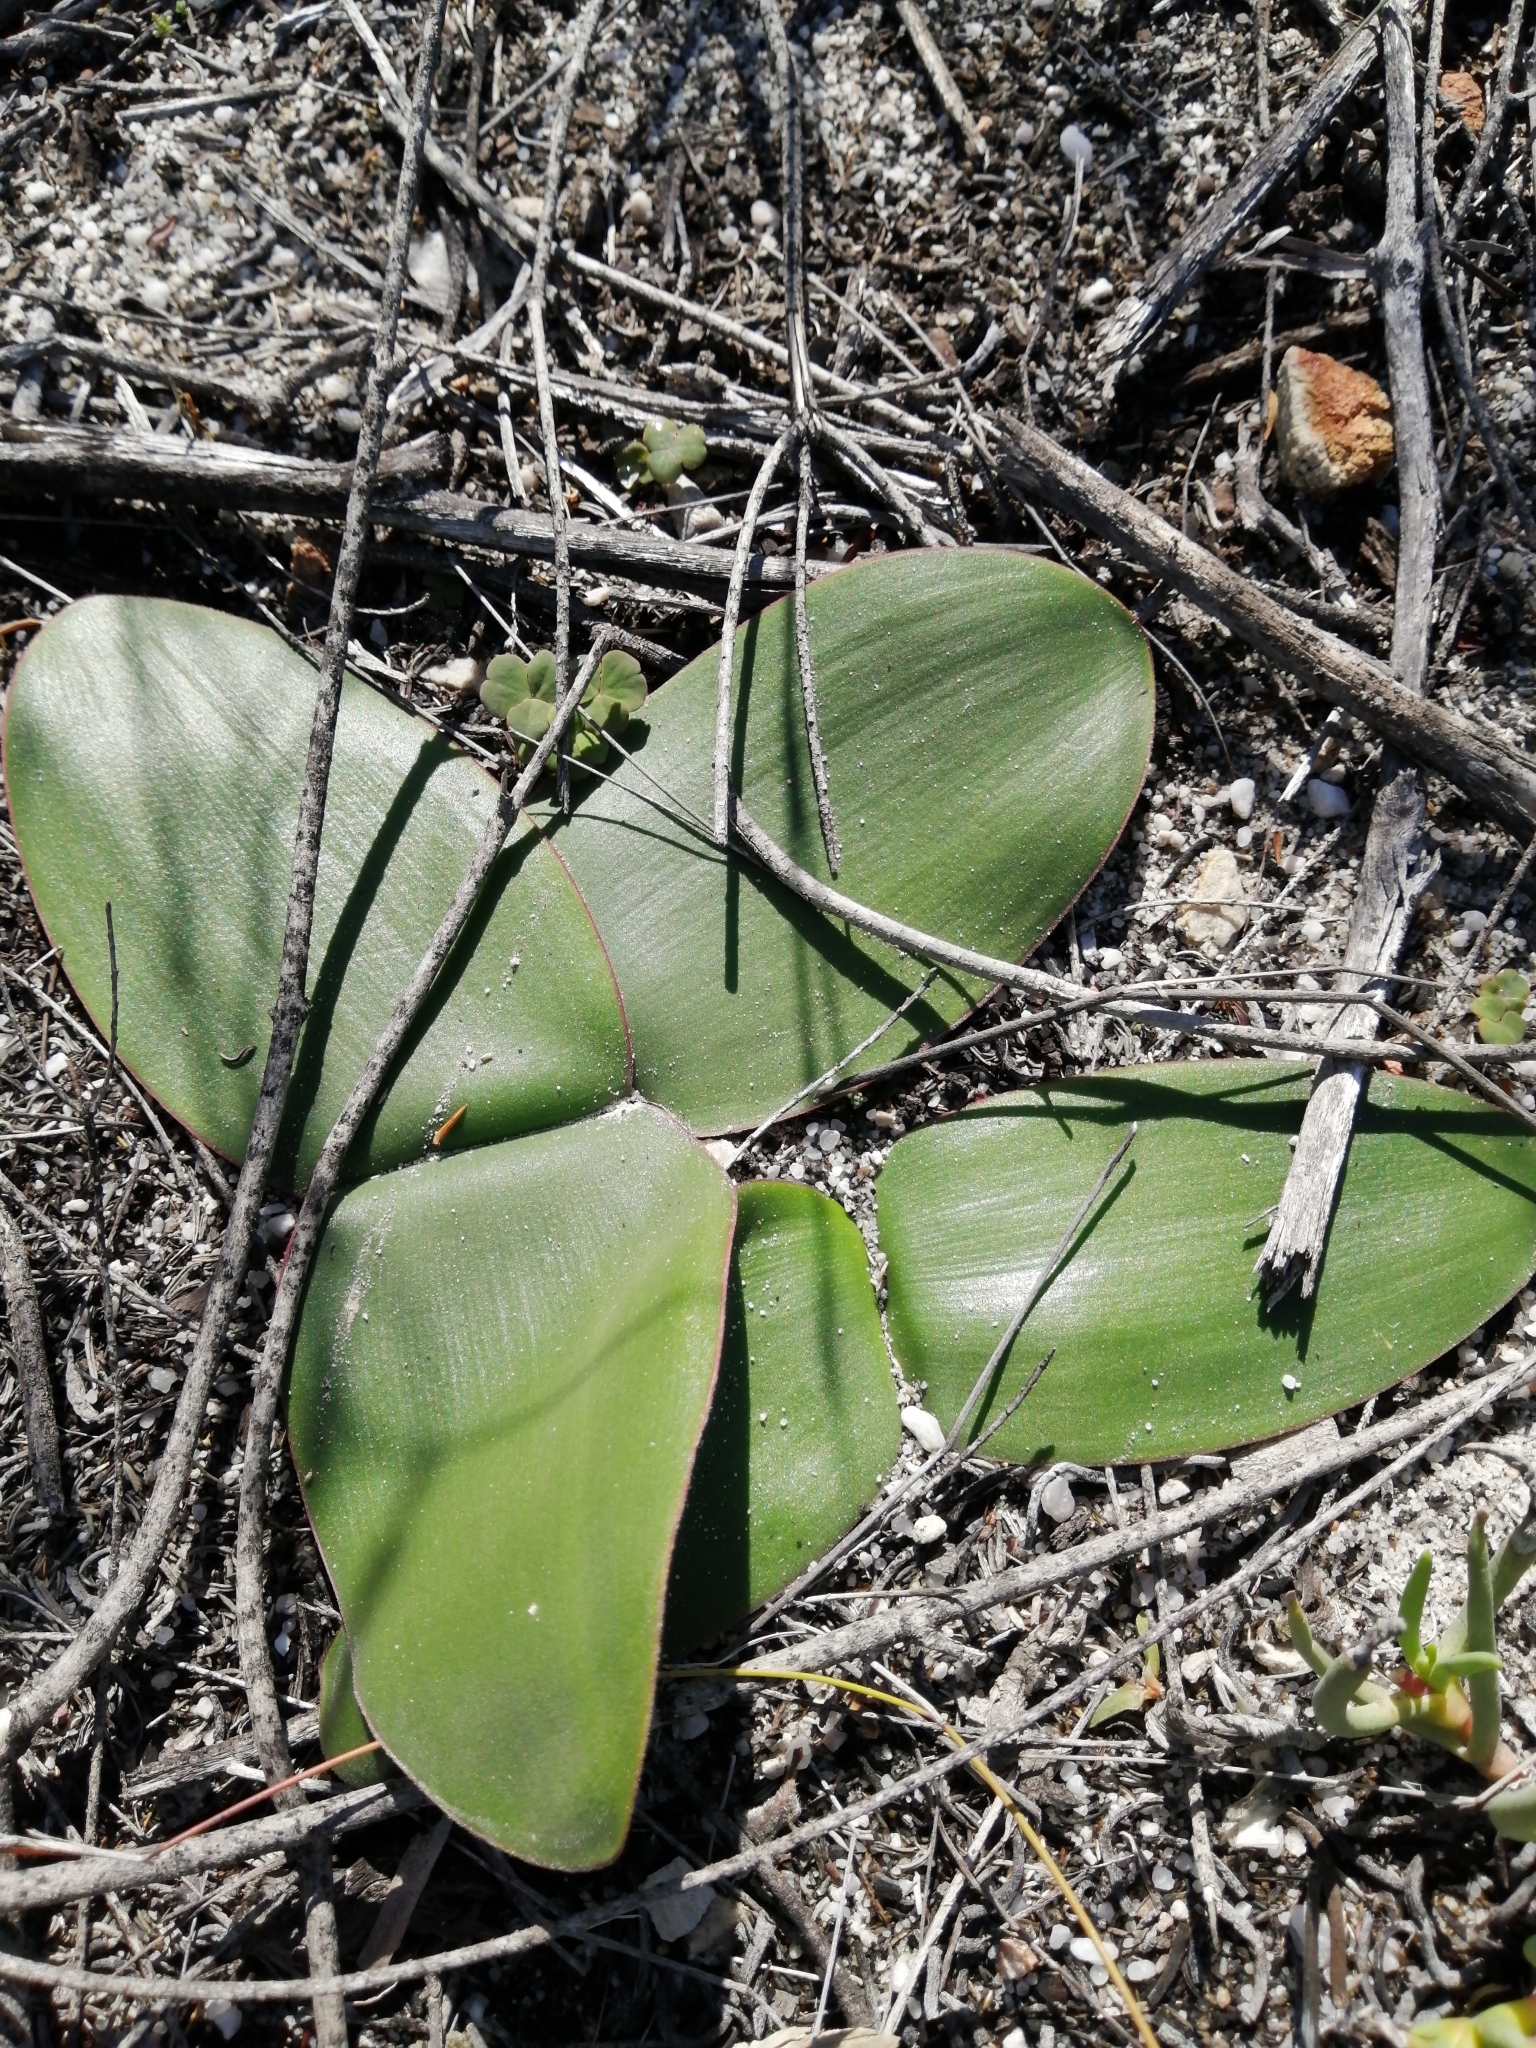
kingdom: Plantae
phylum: Tracheophyta
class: Liliopsida
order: Asparagales
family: Amaryllidaceae
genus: Brunsvigia
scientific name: Brunsvigia orientalis
